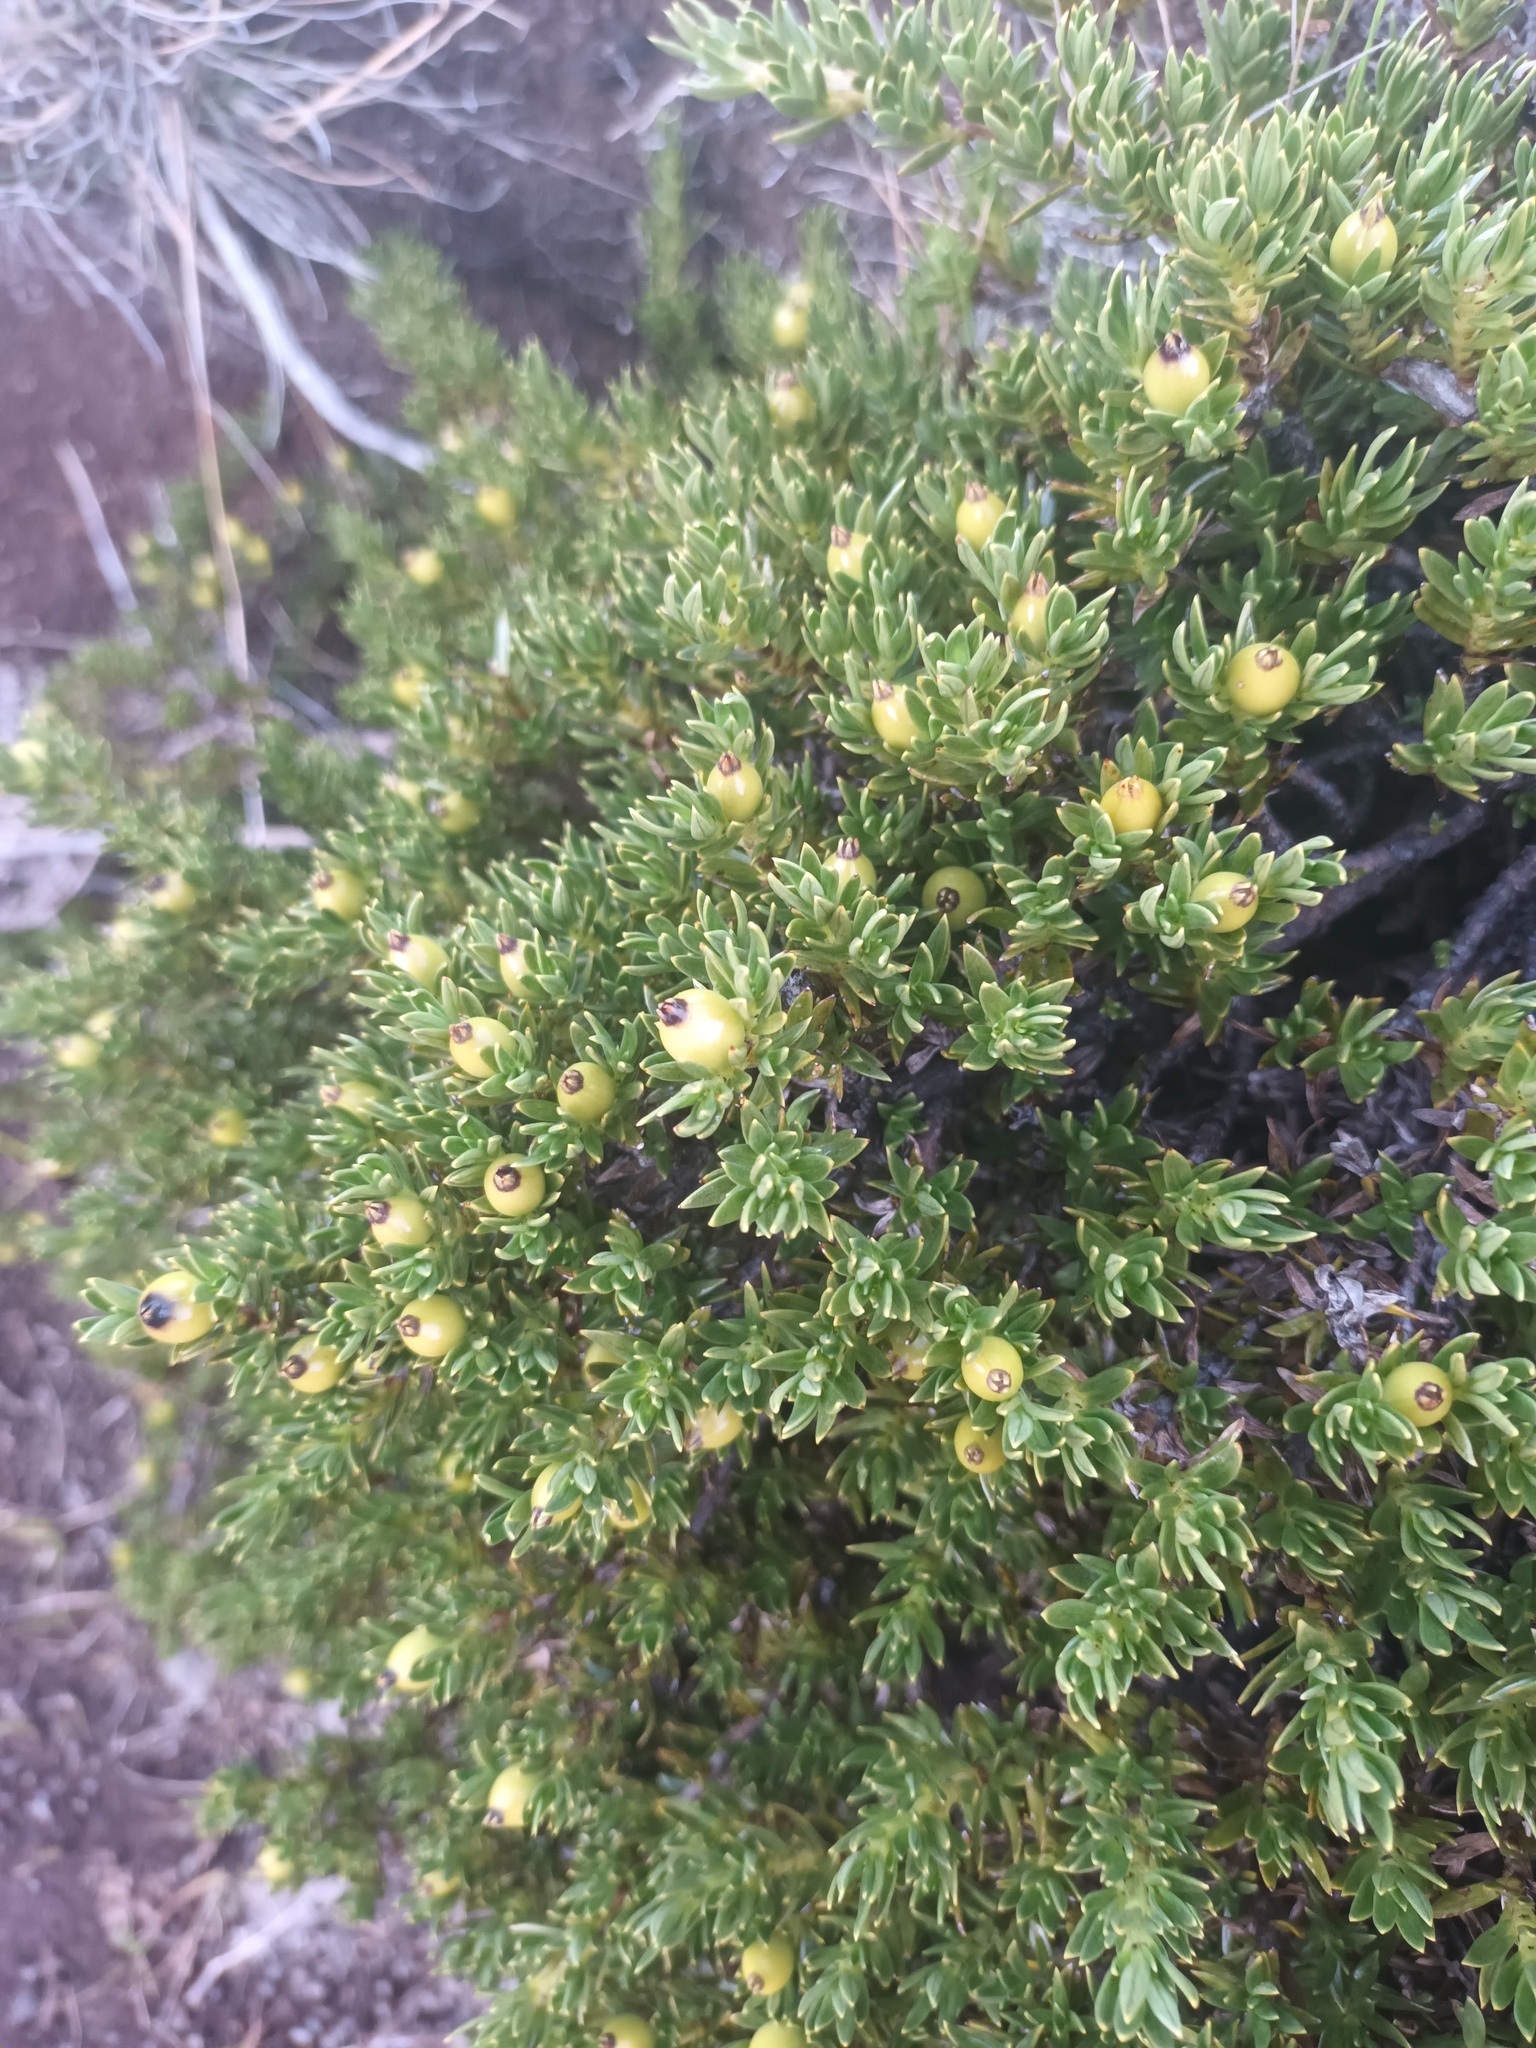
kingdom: Plantae
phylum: Tracheophyta
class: Magnoliopsida
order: Ericales
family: Ericaceae
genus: Leptecophylla
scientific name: Leptecophylla tameiameiae
